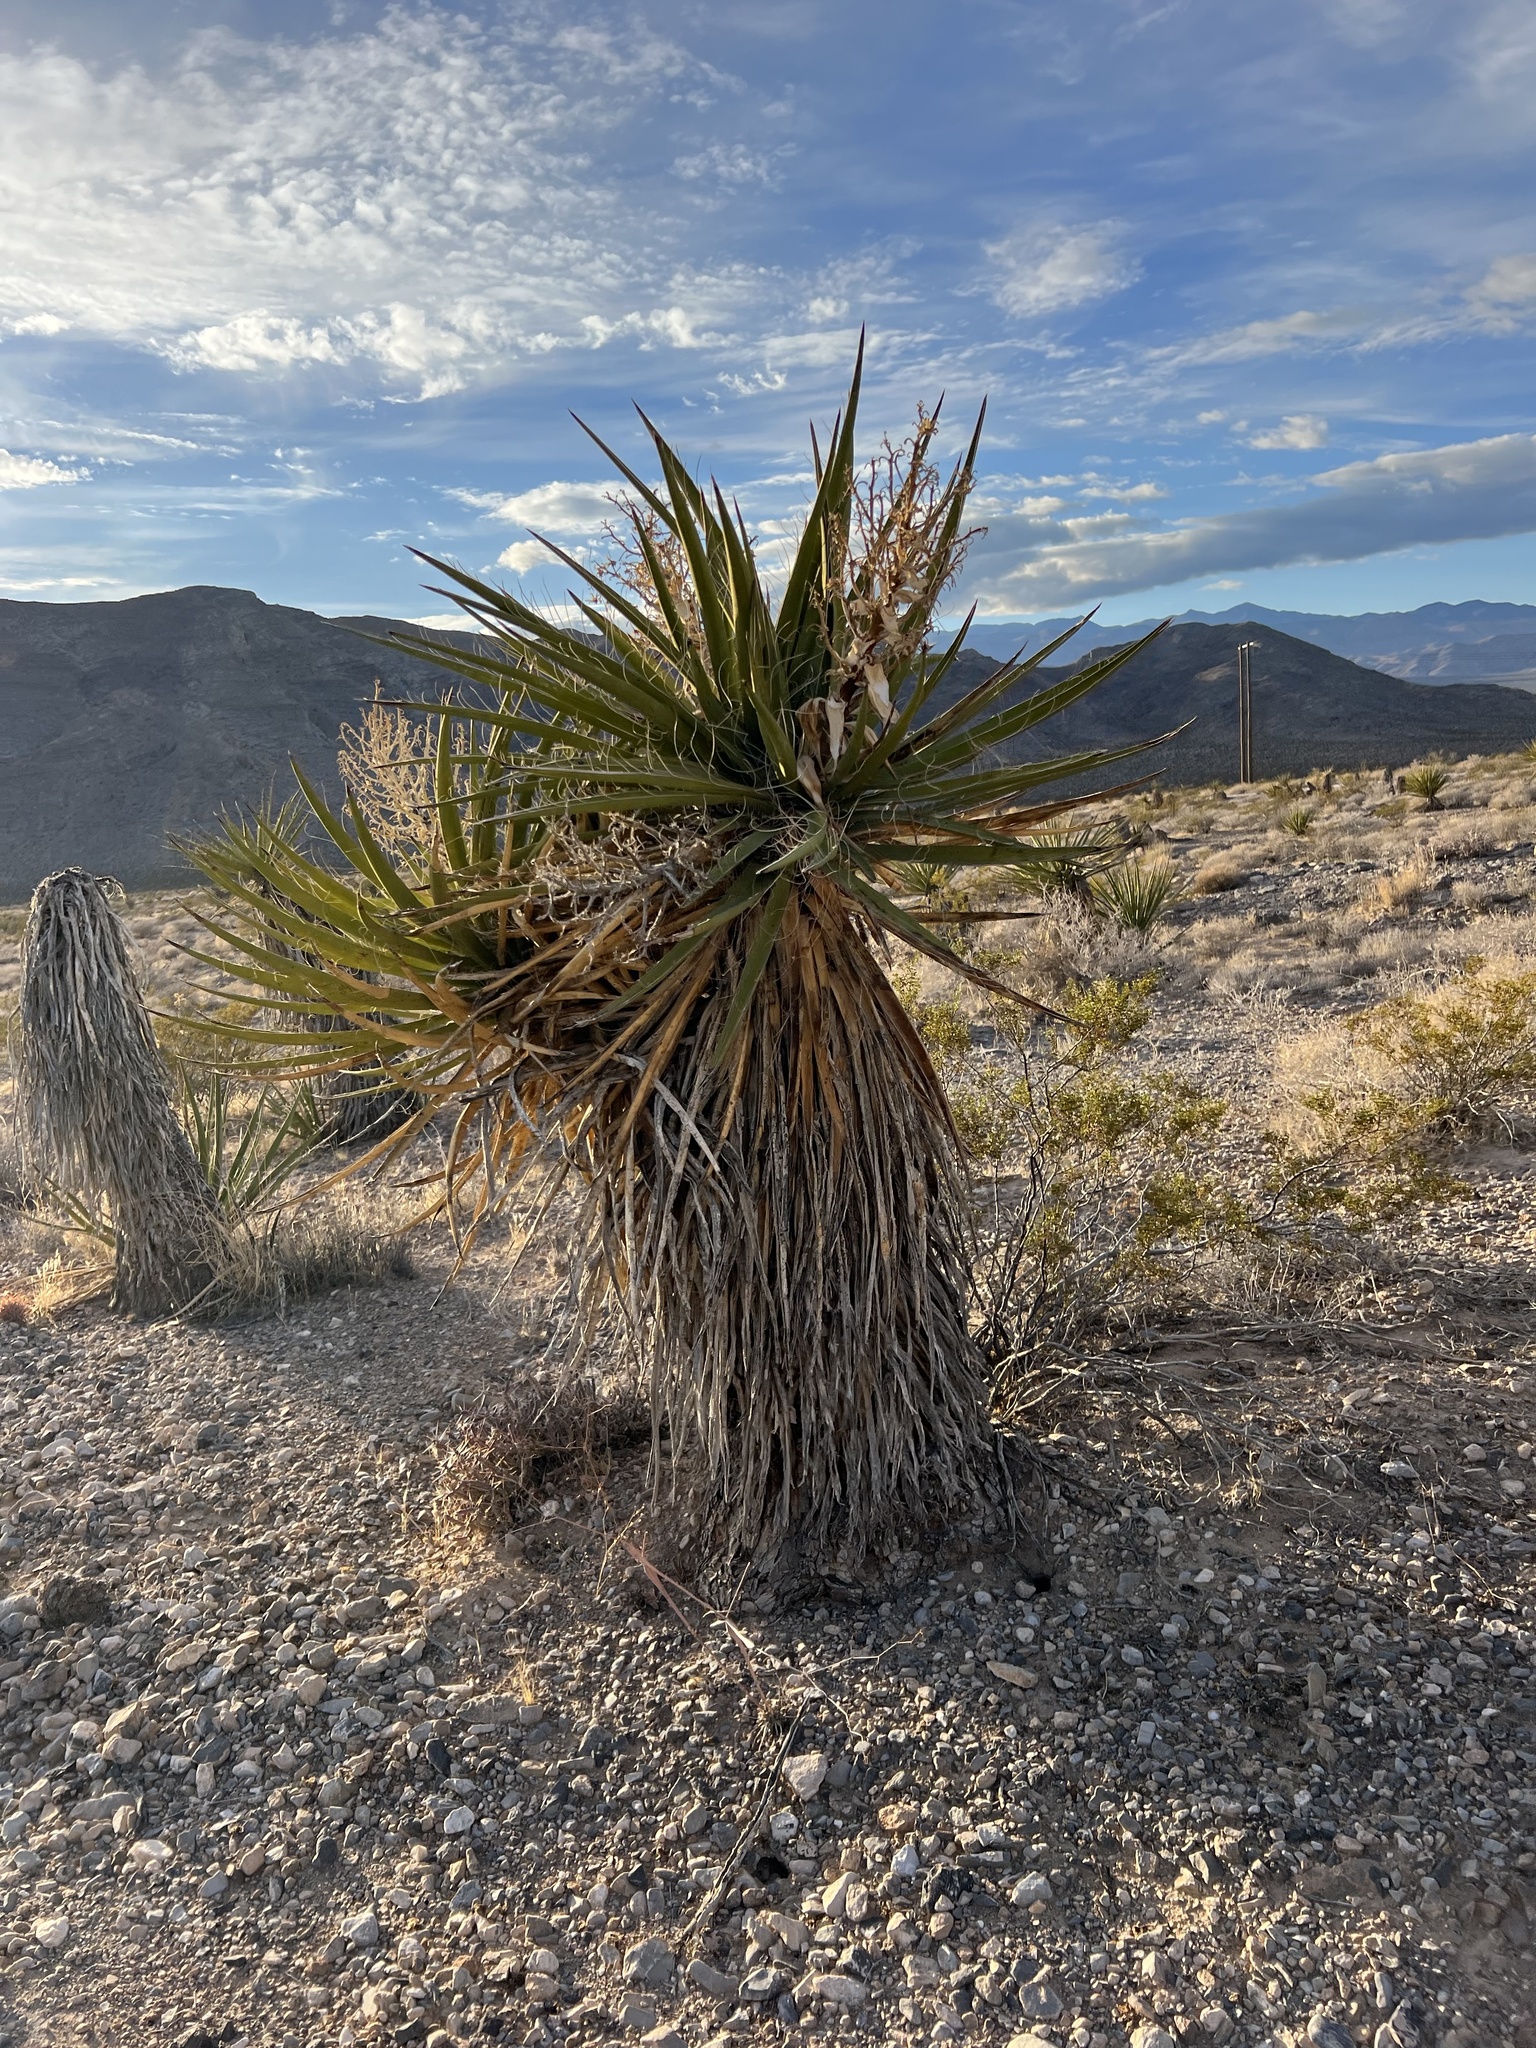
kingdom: Plantae
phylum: Tracheophyta
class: Liliopsida
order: Asparagales
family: Asparagaceae
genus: Yucca
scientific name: Yucca schidigera
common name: Mojave yucca
